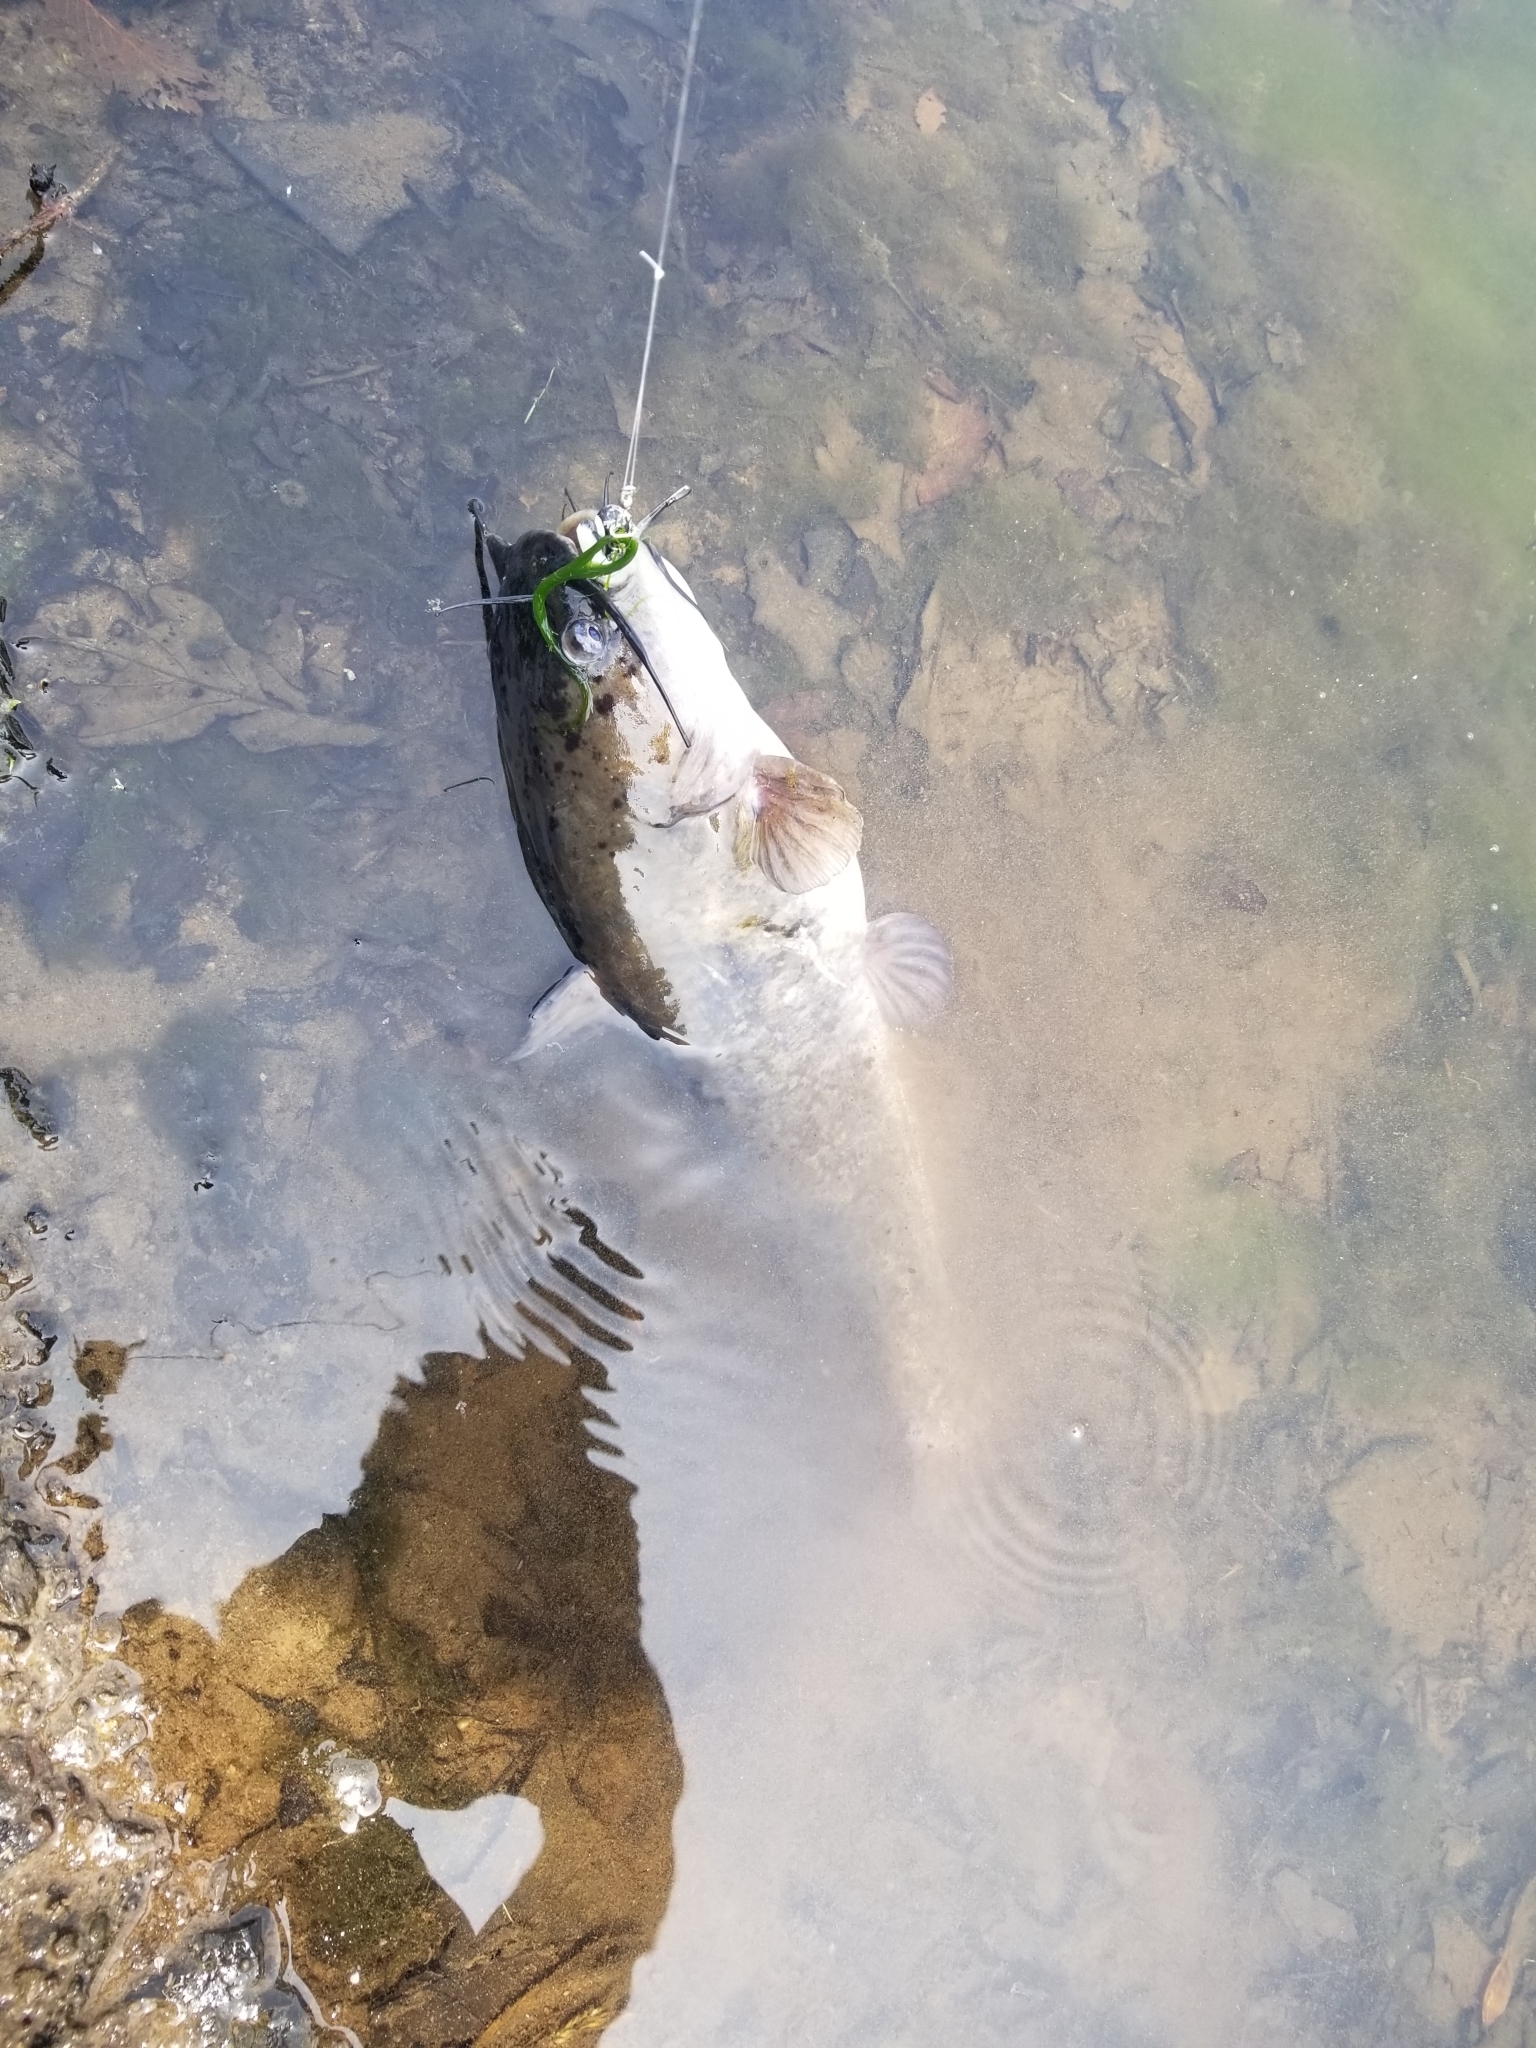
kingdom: Animalia
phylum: Chordata
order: Siluriformes
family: Ictaluridae
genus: Ameiurus
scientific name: Ameiurus nebulosus
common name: Brown bullhead
